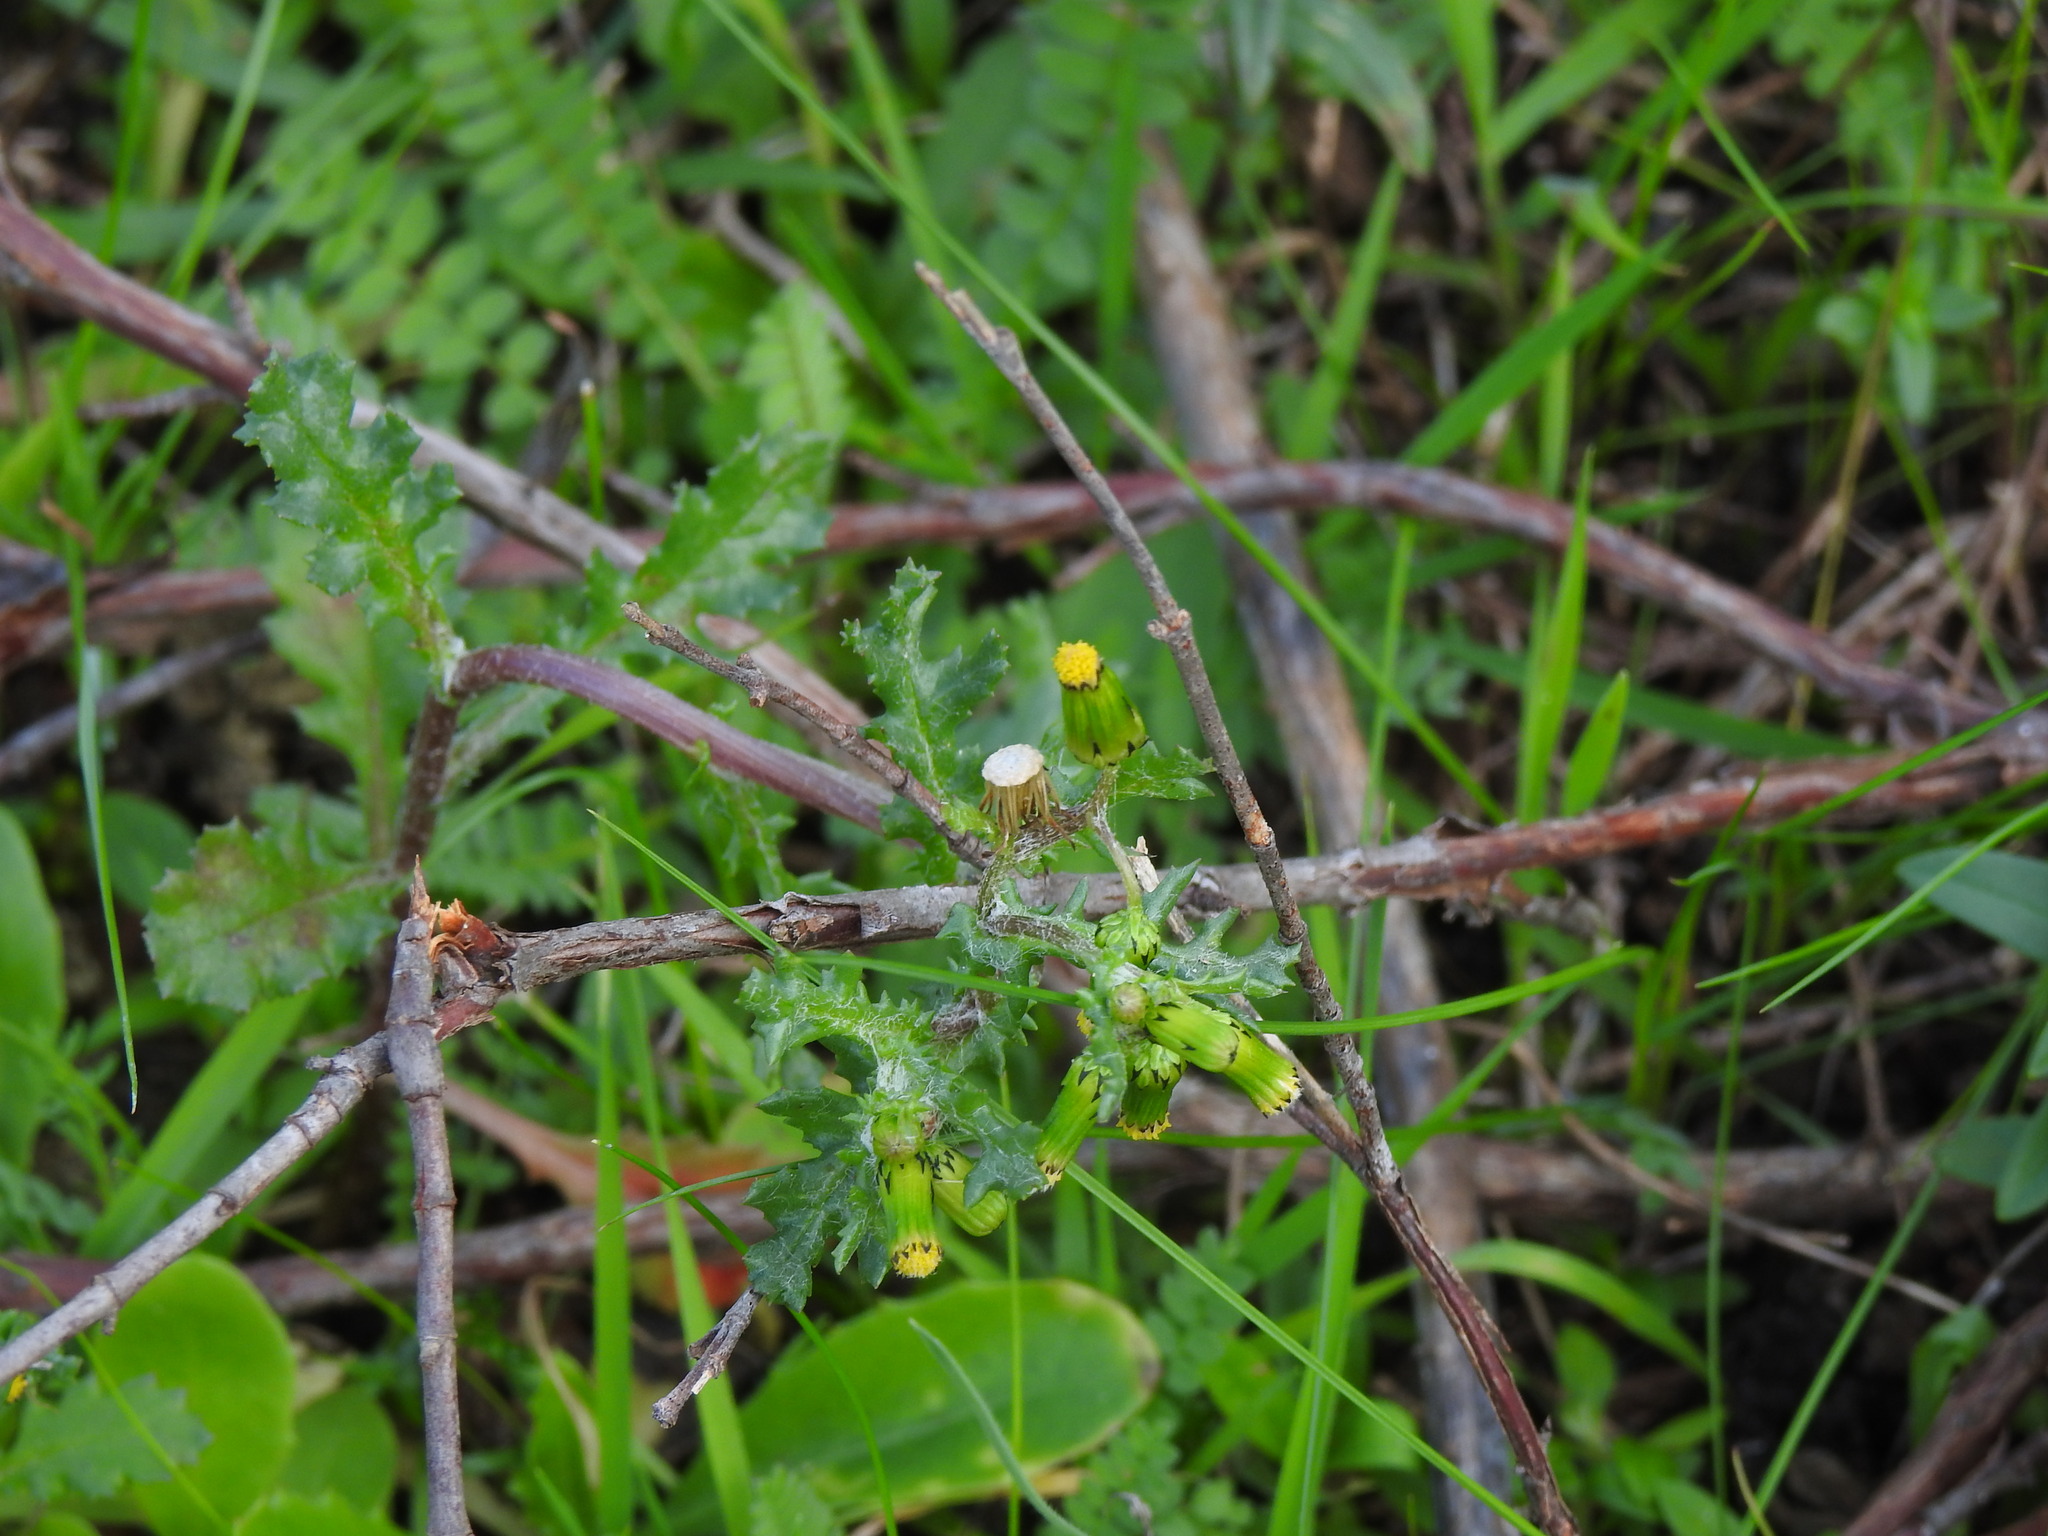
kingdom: Plantae
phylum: Tracheophyta
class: Magnoliopsida
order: Asterales
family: Asteraceae
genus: Senecio
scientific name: Senecio vulgaris
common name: Old-man-in-the-spring
